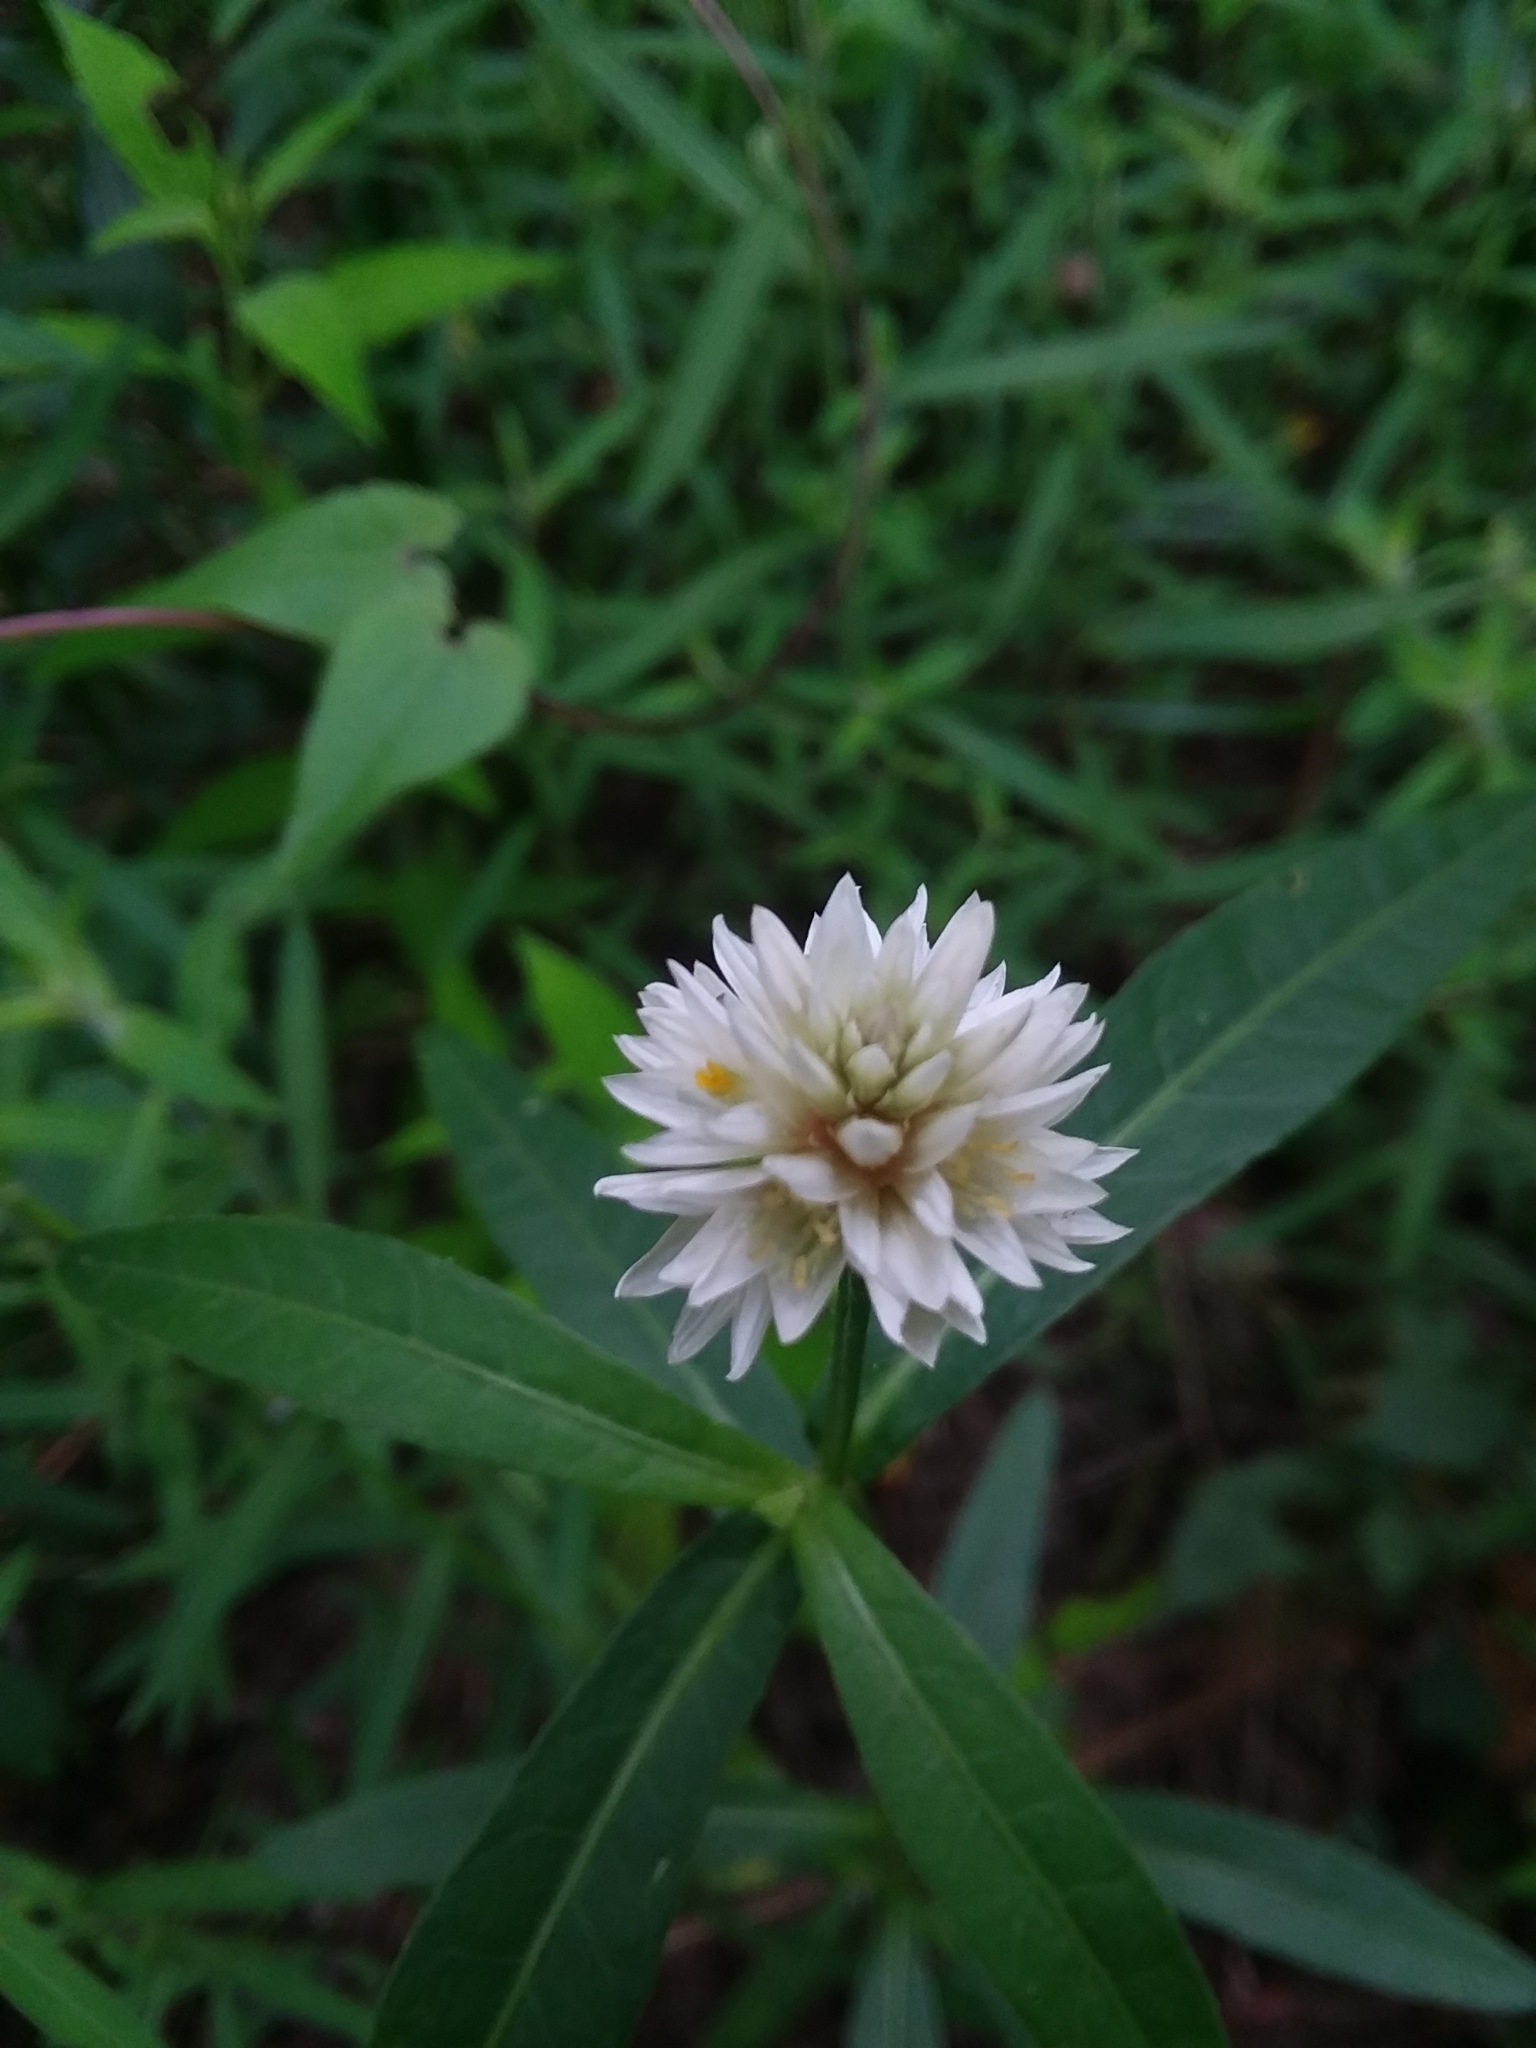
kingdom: Plantae
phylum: Tracheophyta
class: Magnoliopsida
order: Caryophyllales
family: Amaranthaceae
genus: Alternanthera
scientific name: Alternanthera philoxeroides
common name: Alligatorweed
